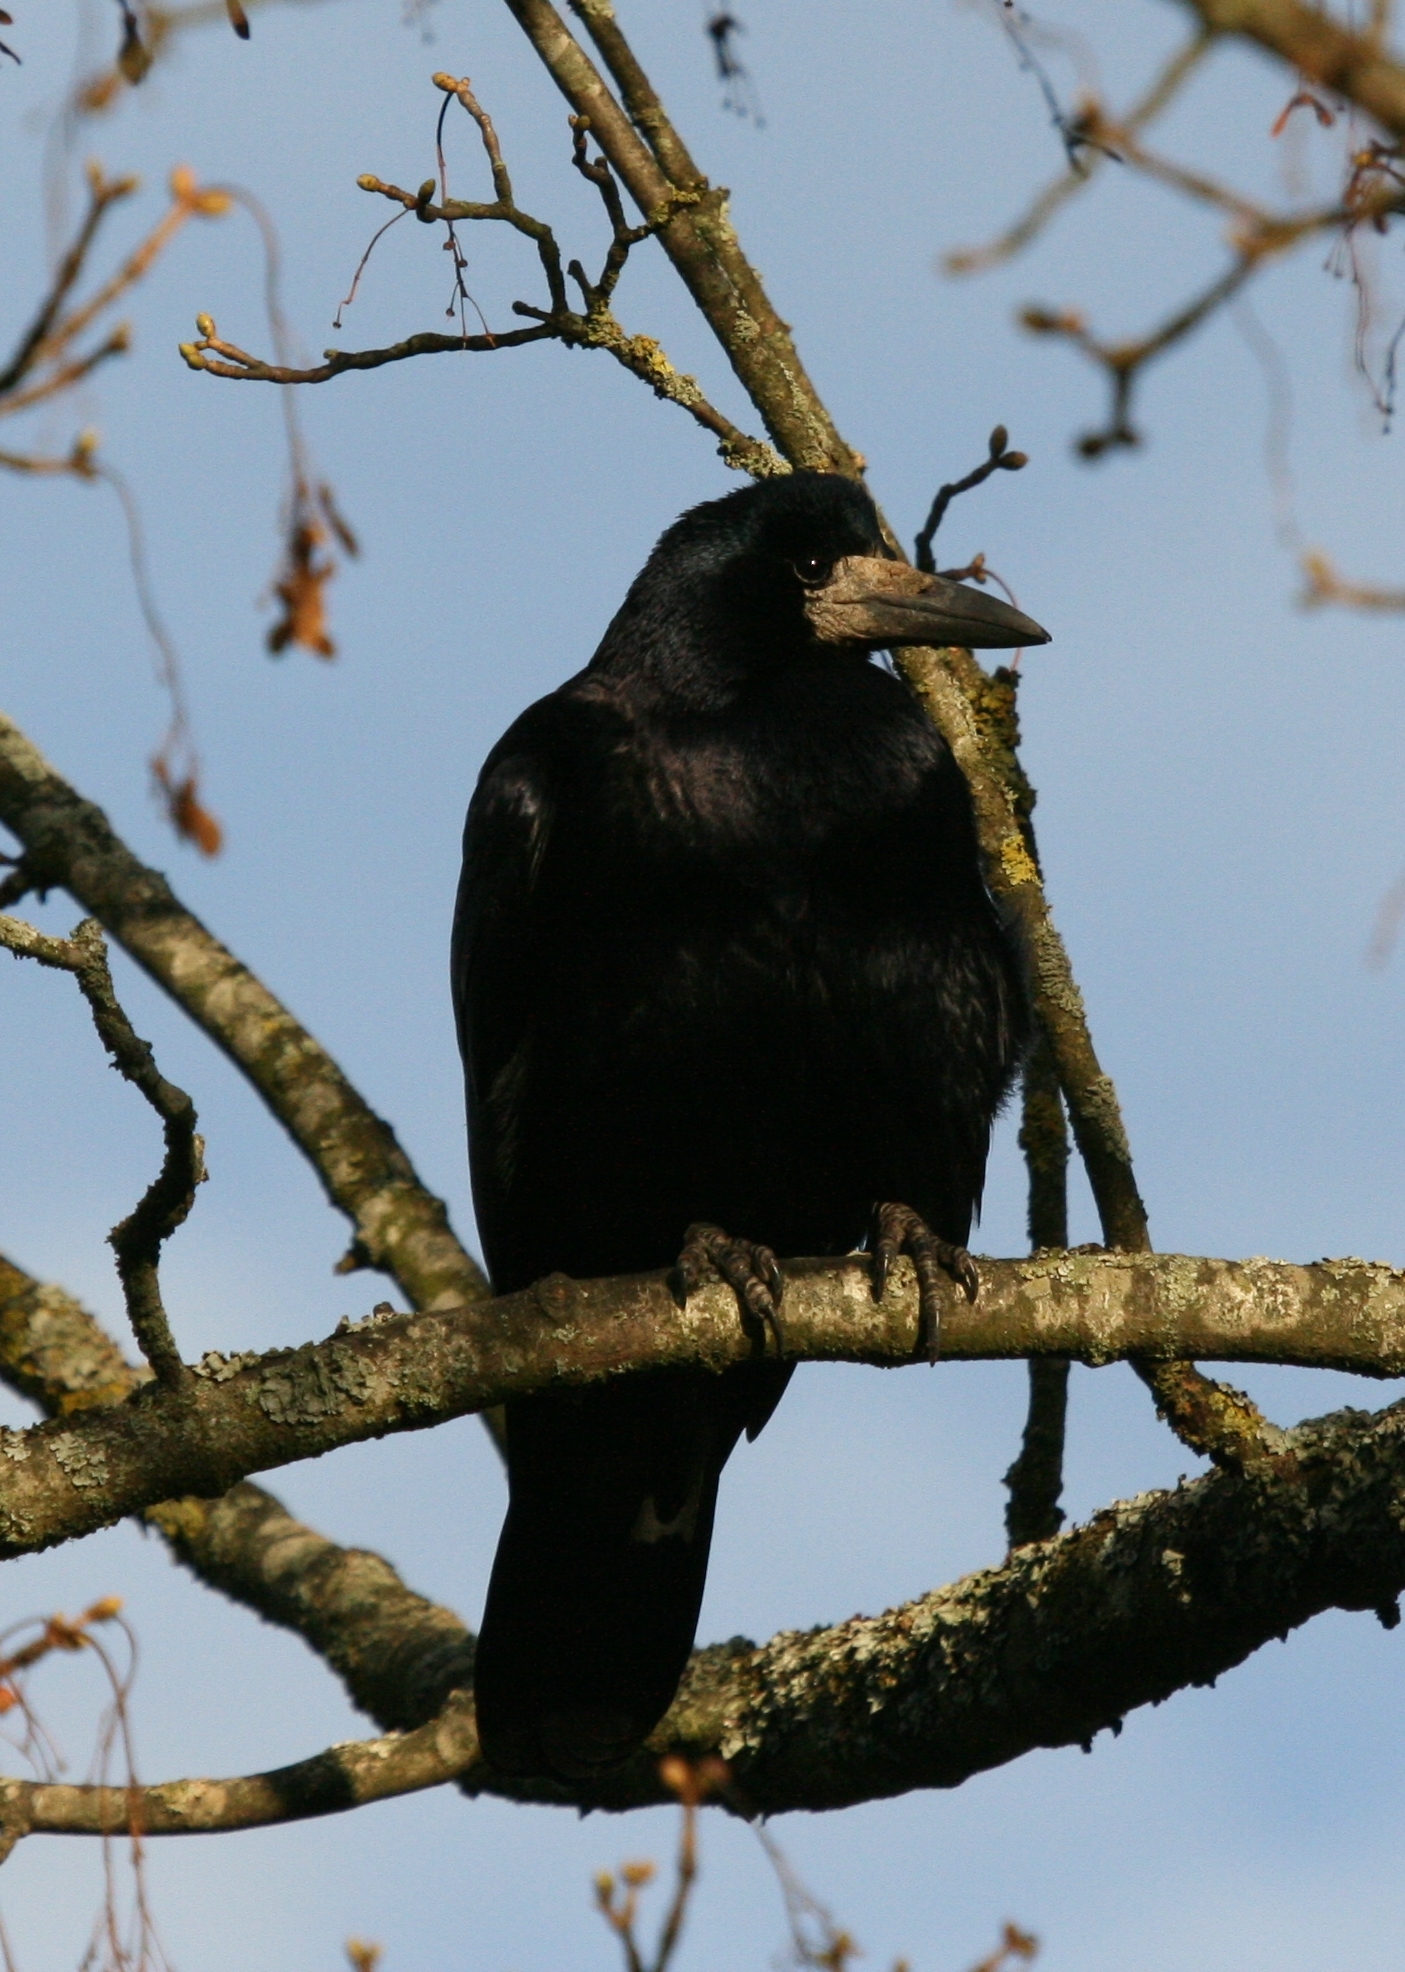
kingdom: Animalia
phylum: Chordata
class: Aves
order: Passeriformes
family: Corvidae
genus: Corvus
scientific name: Corvus frugilegus
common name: Rook
